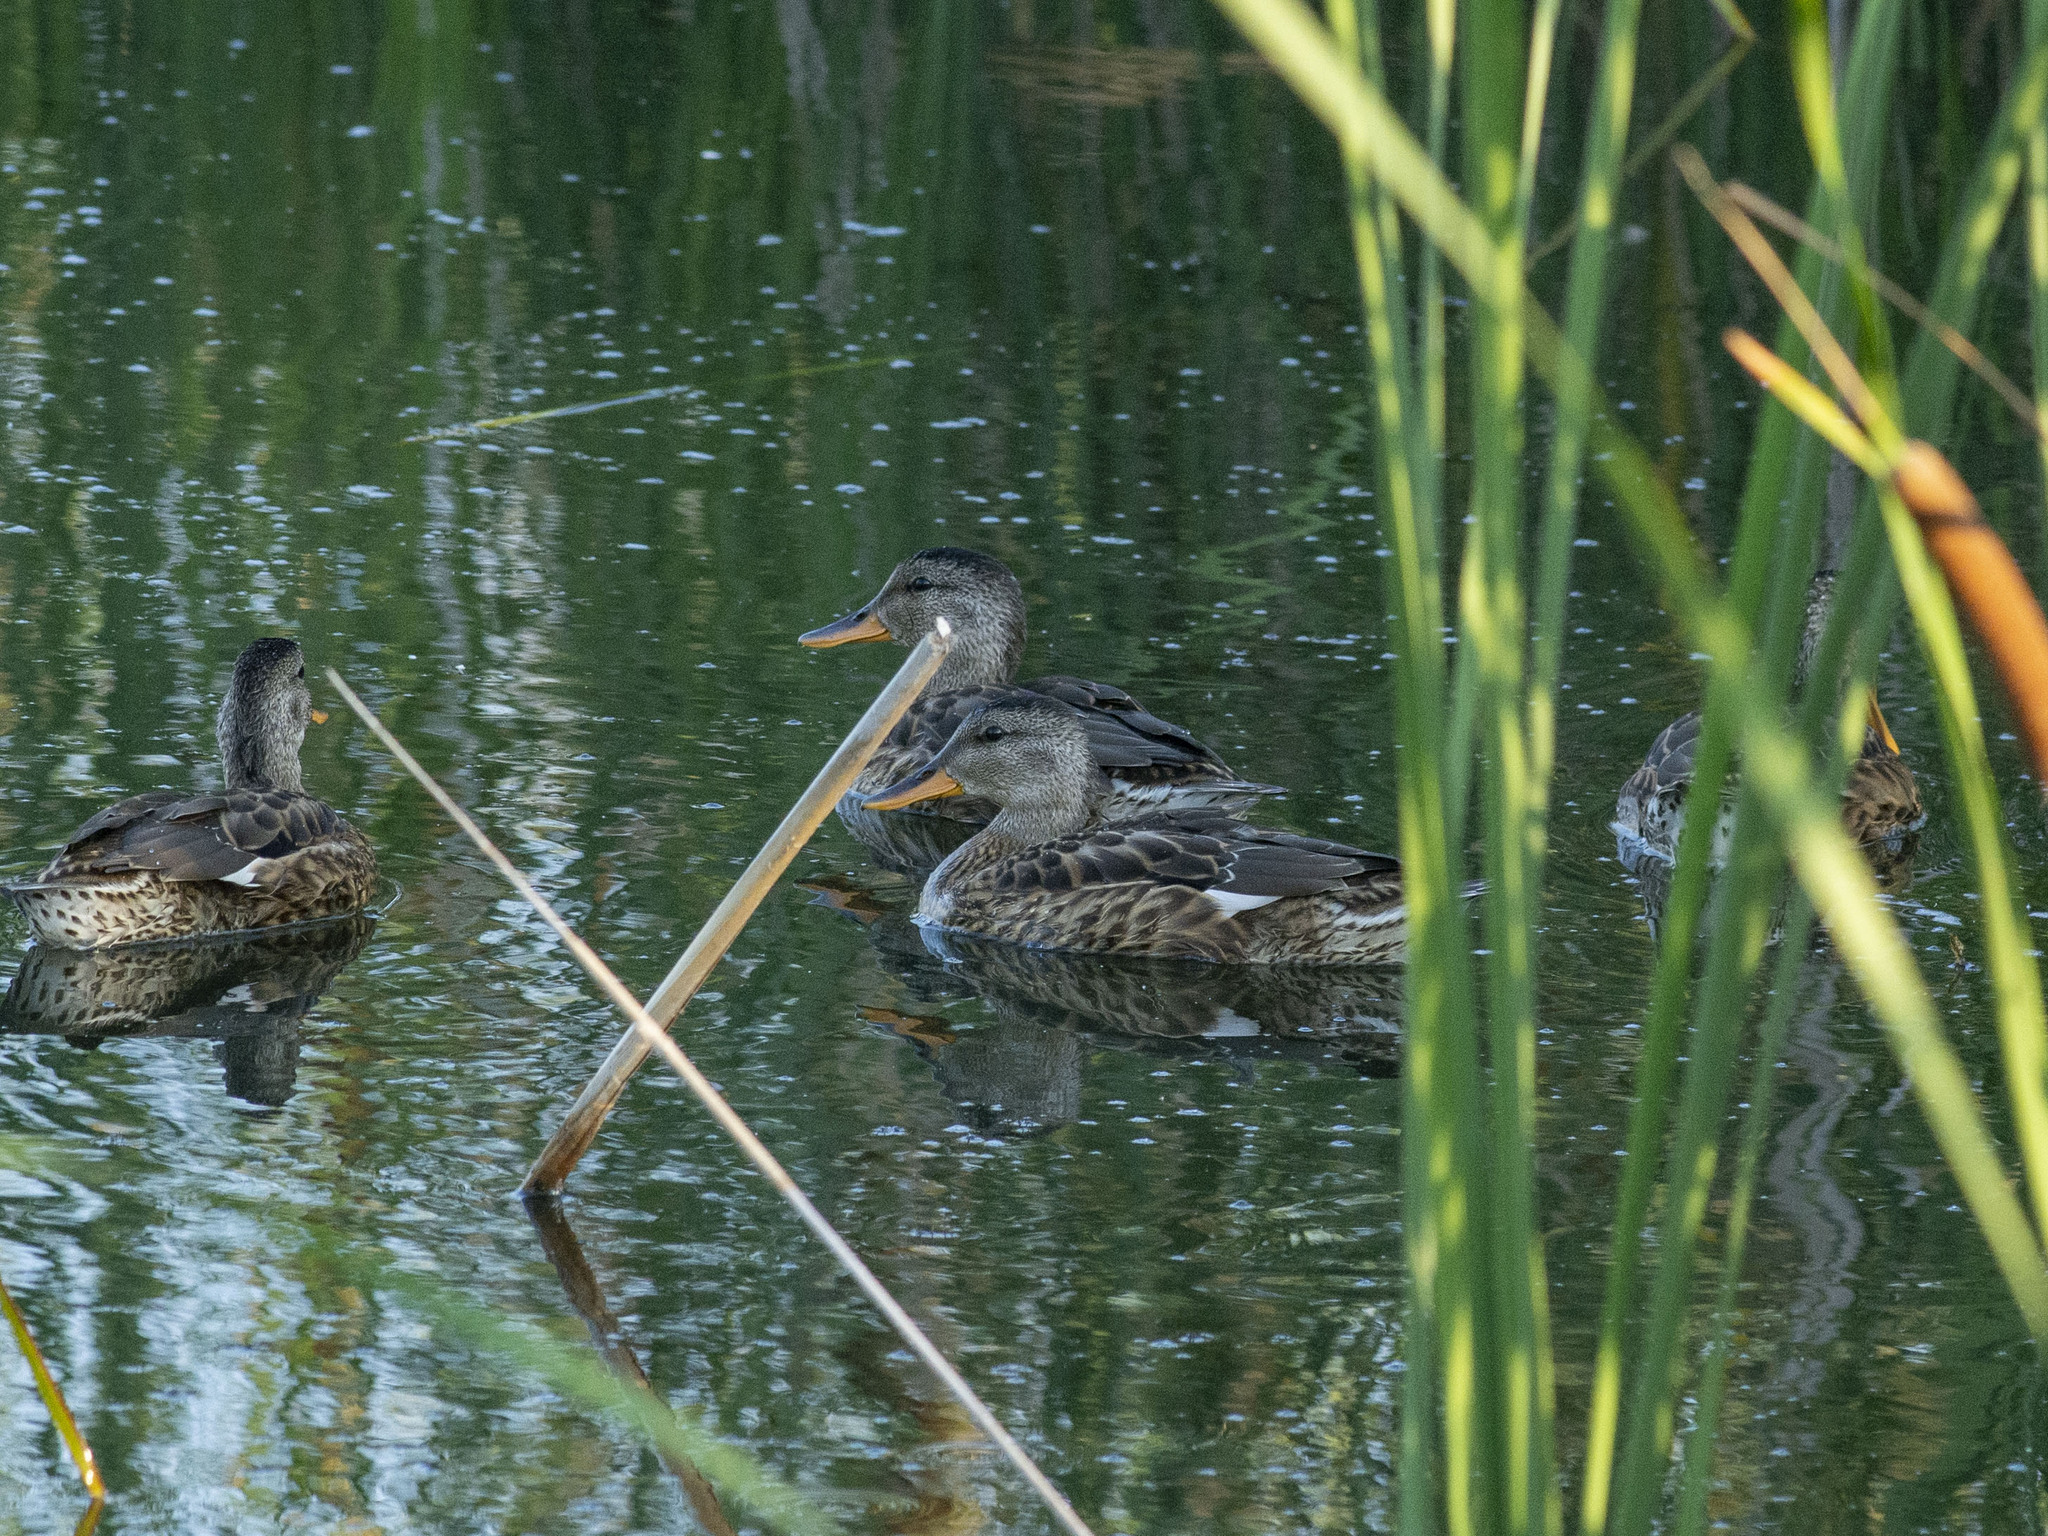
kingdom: Animalia
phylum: Chordata
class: Aves
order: Anseriformes
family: Anatidae
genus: Mareca
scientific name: Mareca strepera
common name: Gadwall
